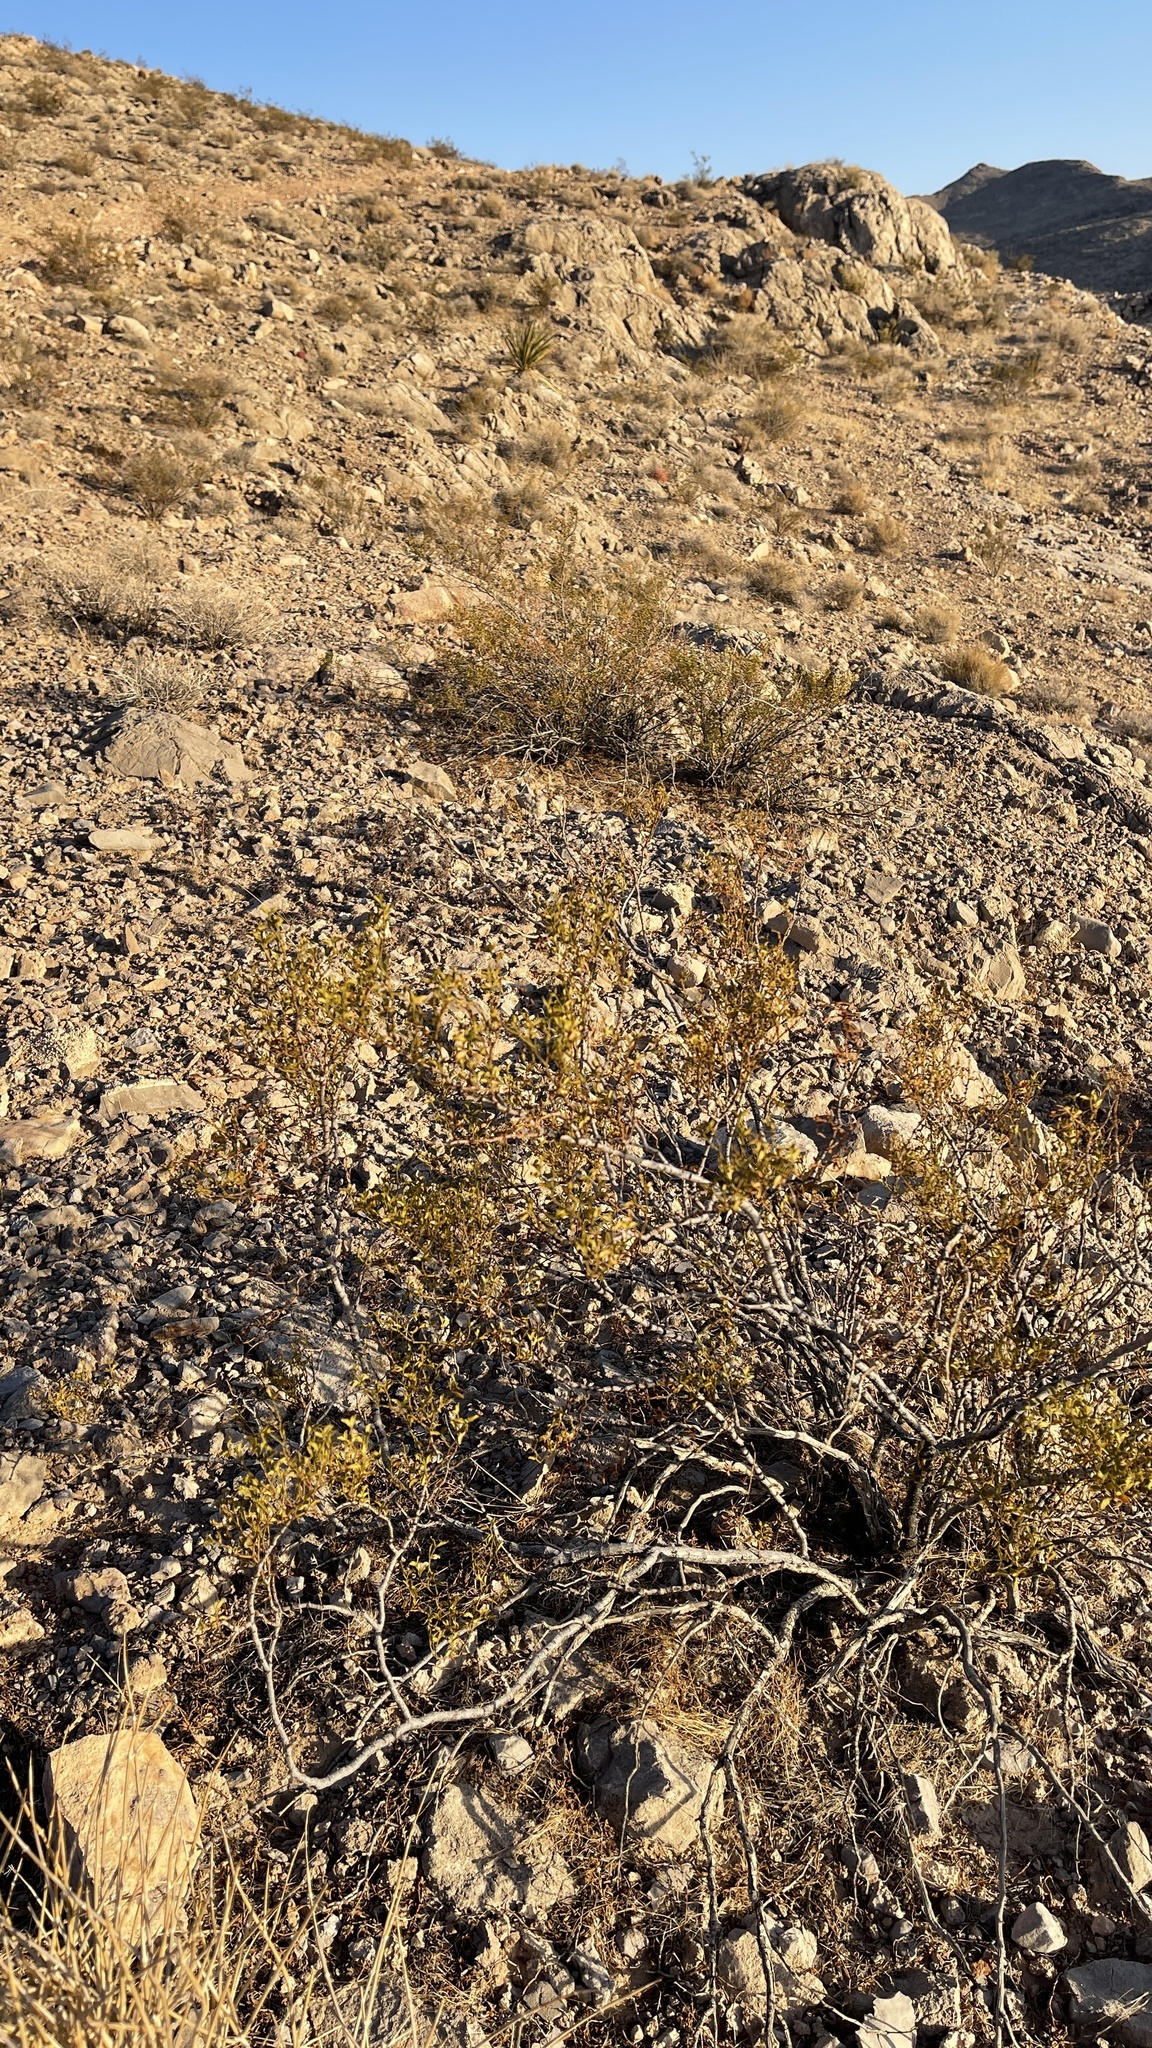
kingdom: Plantae
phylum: Tracheophyta
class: Magnoliopsida
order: Zygophyllales
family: Zygophyllaceae
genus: Larrea
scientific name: Larrea tridentata
